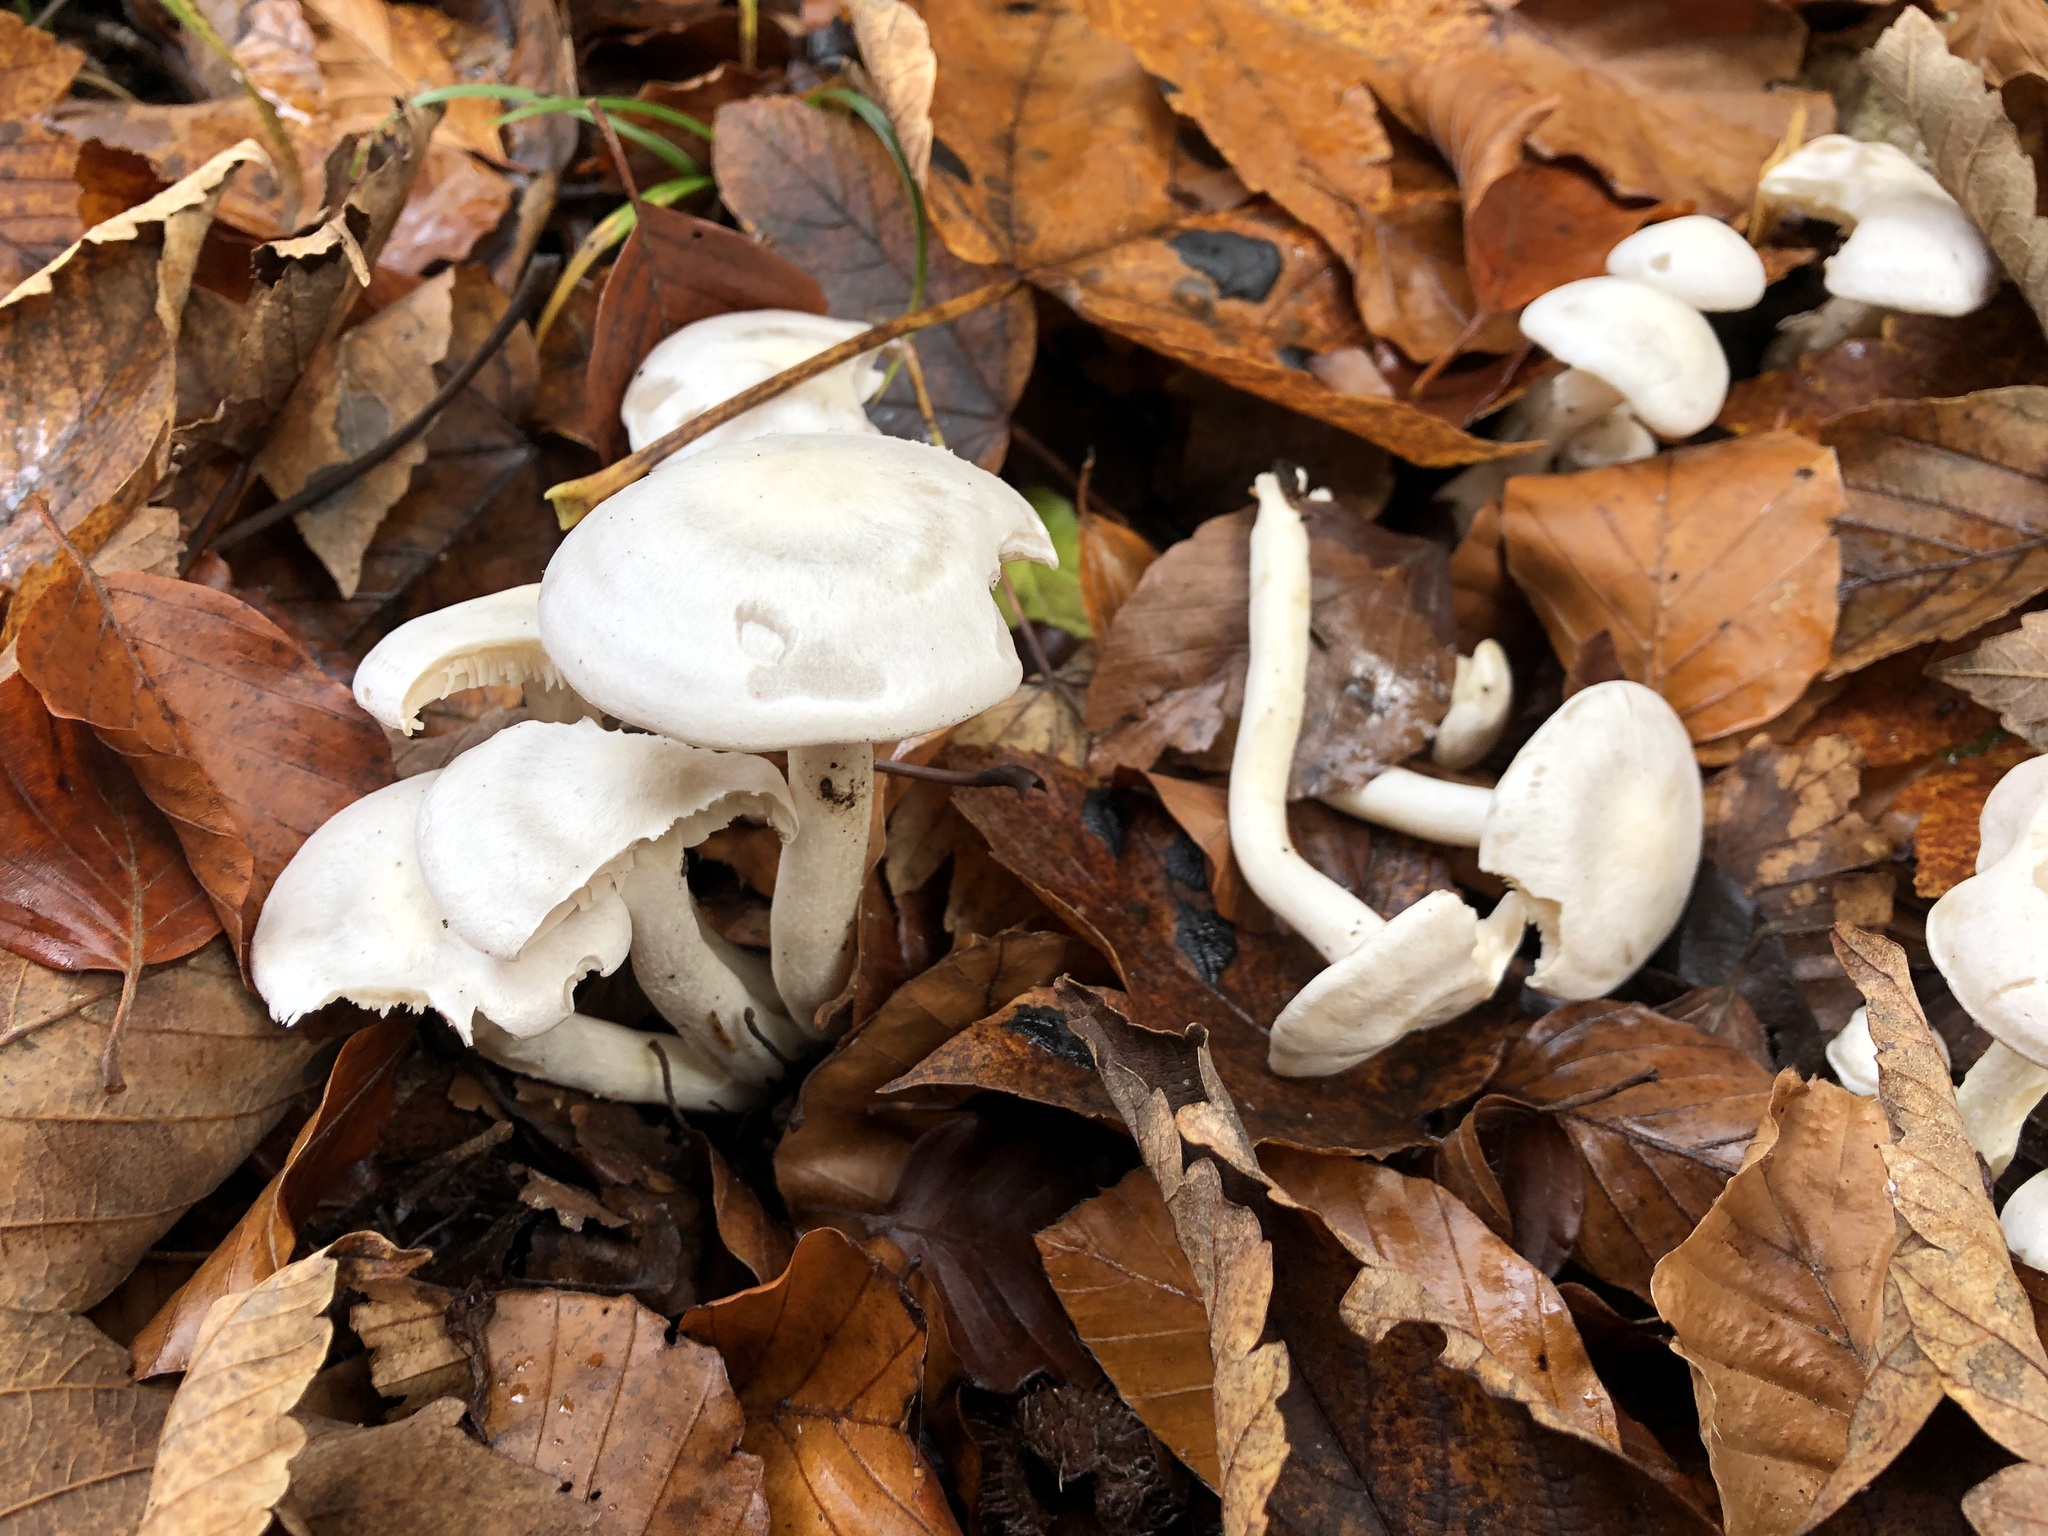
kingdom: Fungi
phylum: Basidiomycota
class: Agaricomycetes
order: Agaricales
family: Tricholomataceae
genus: Leucocybe
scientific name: Leucocybe connata
